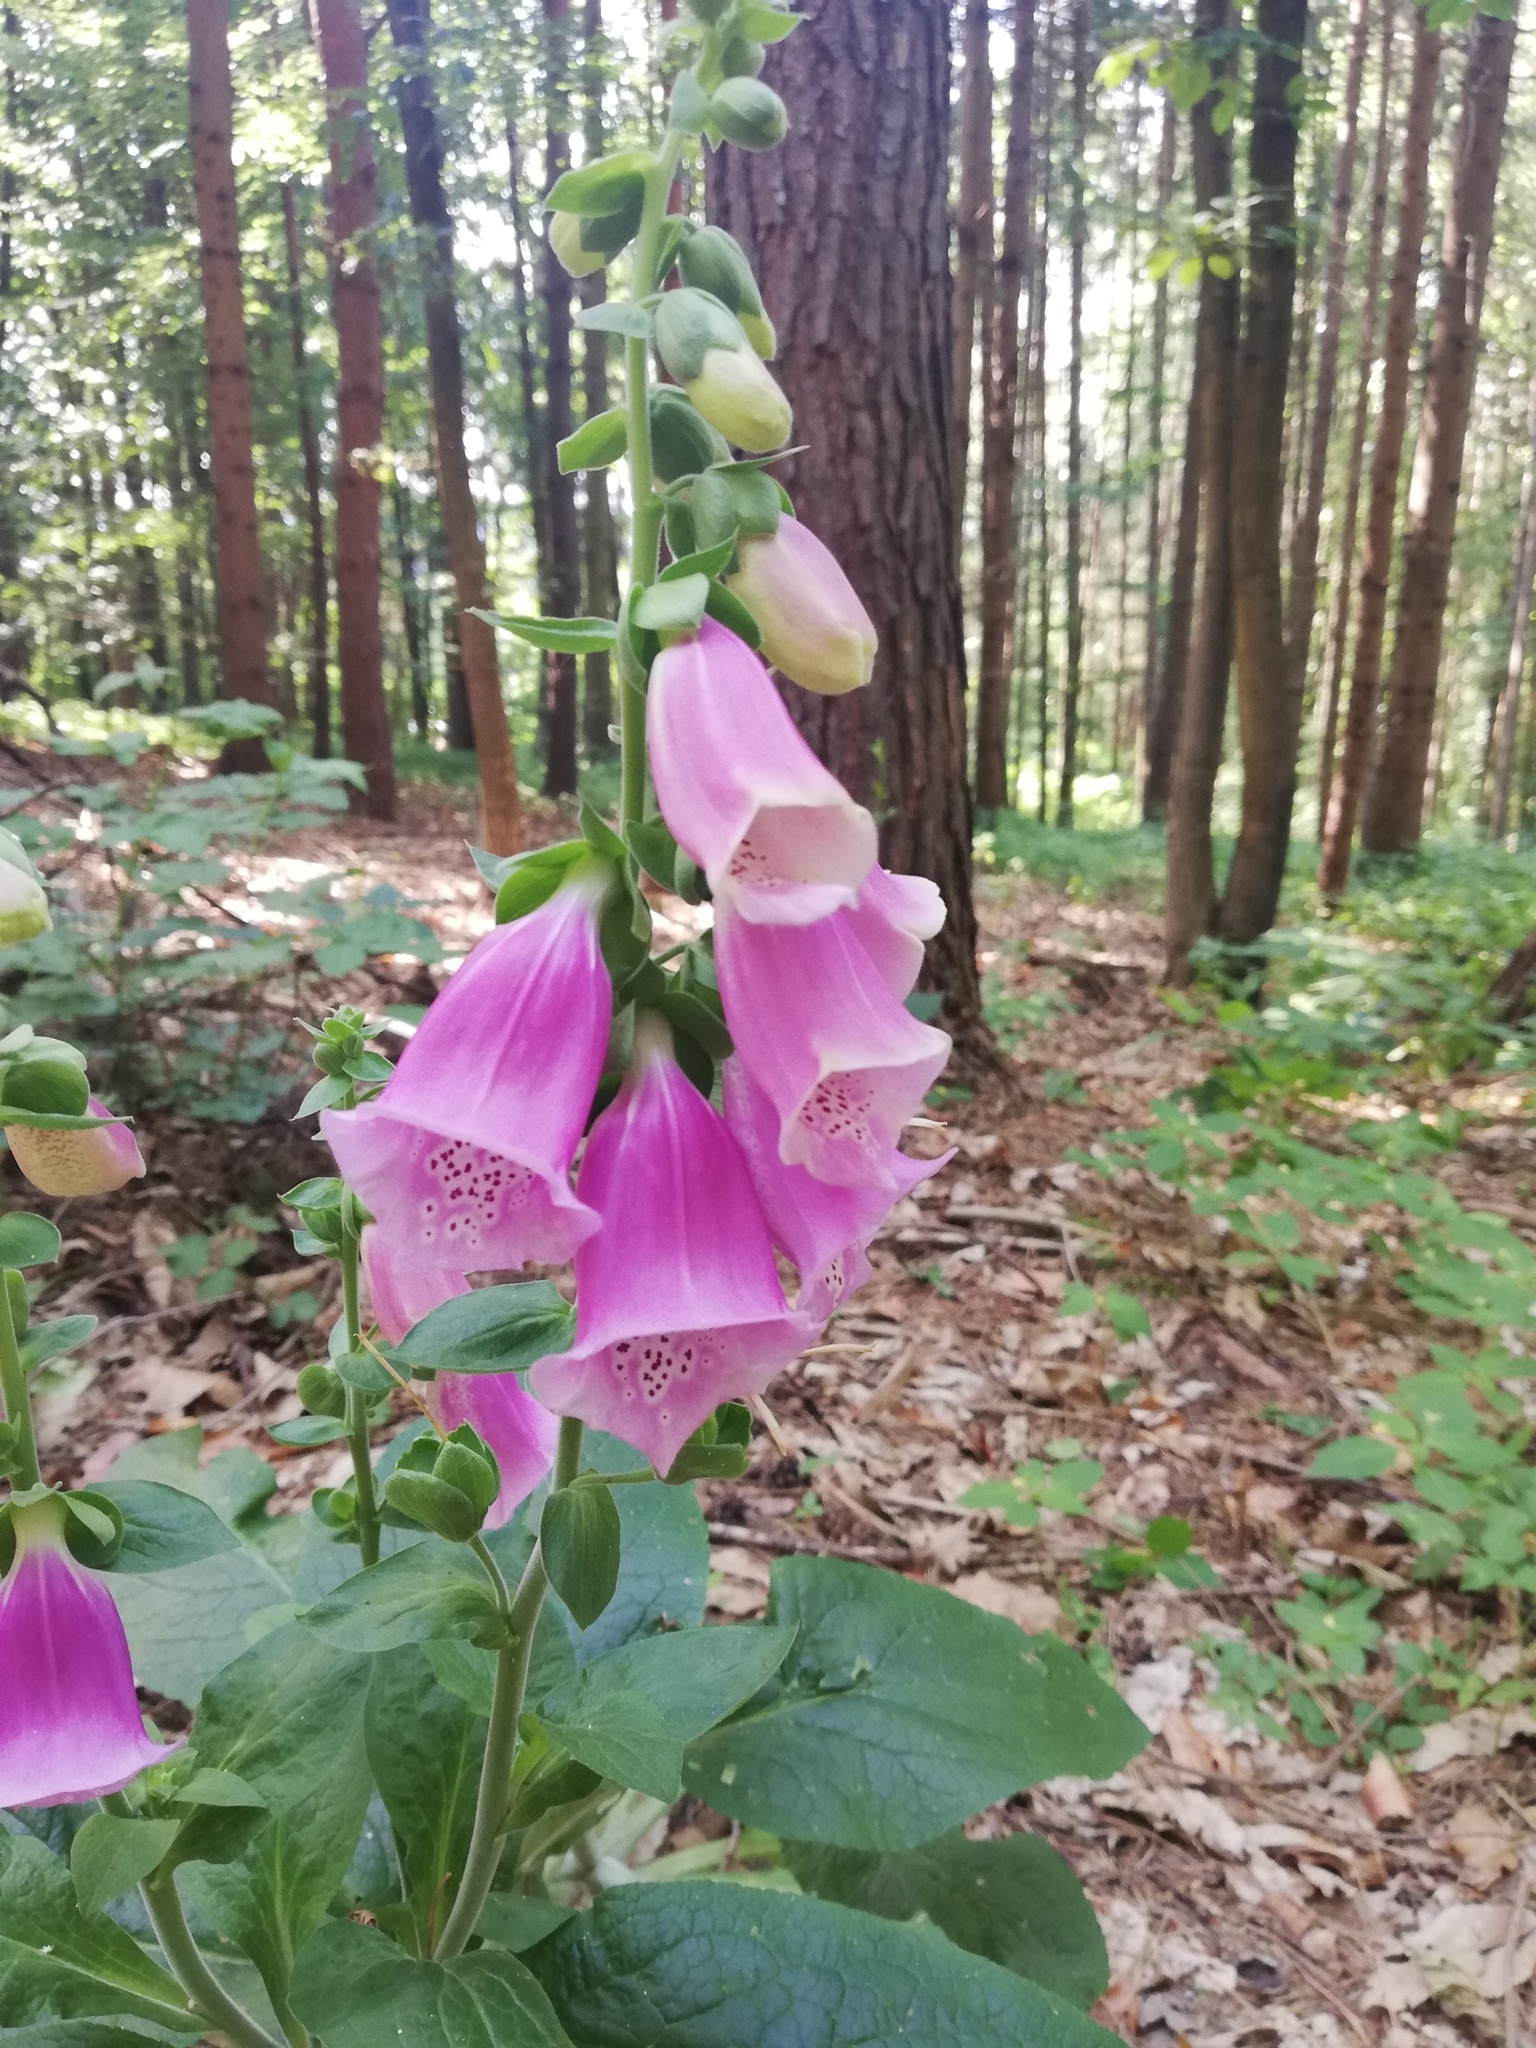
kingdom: Plantae
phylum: Tracheophyta
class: Magnoliopsida
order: Lamiales
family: Plantaginaceae
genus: Digitalis
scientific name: Digitalis purpurea
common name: Foxglove
